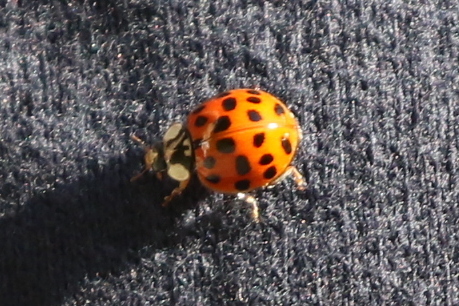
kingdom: Animalia
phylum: Arthropoda
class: Insecta
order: Coleoptera
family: Coccinellidae
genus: Harmonia
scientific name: Harmonia axyridis
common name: Harlequin ladybird
